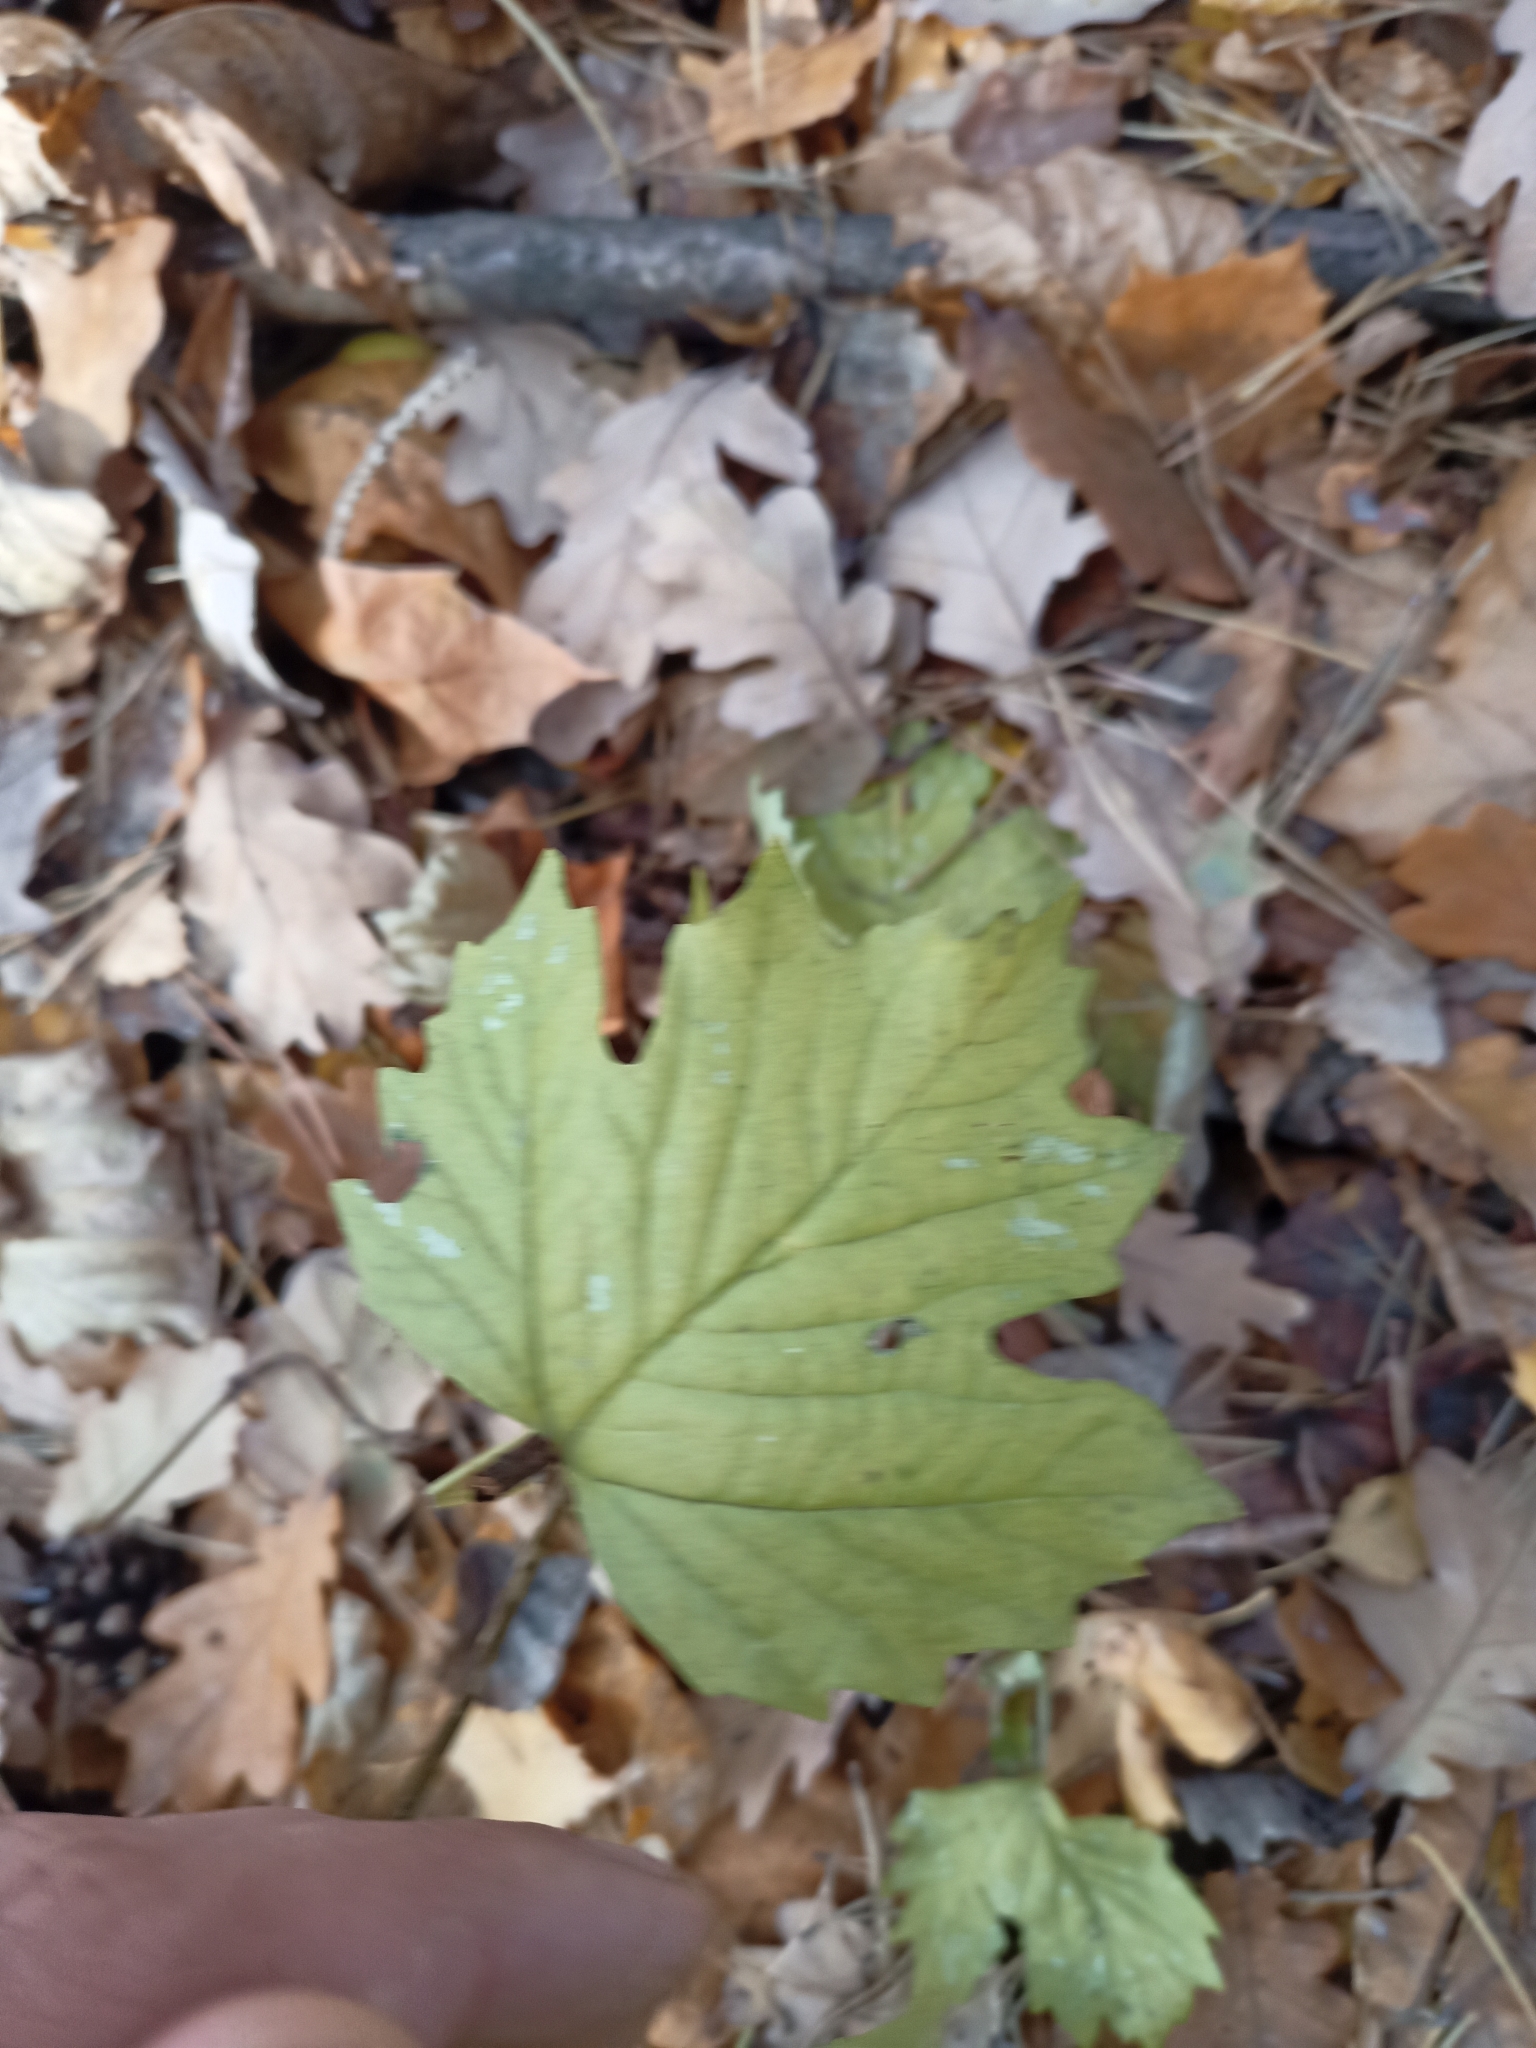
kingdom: Plantae
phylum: Tracheophyta
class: Magnoliopsida
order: Dipsacales
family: Viburnaceae
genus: Viburnum
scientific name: Viburnum opulus
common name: Guelder-rose
